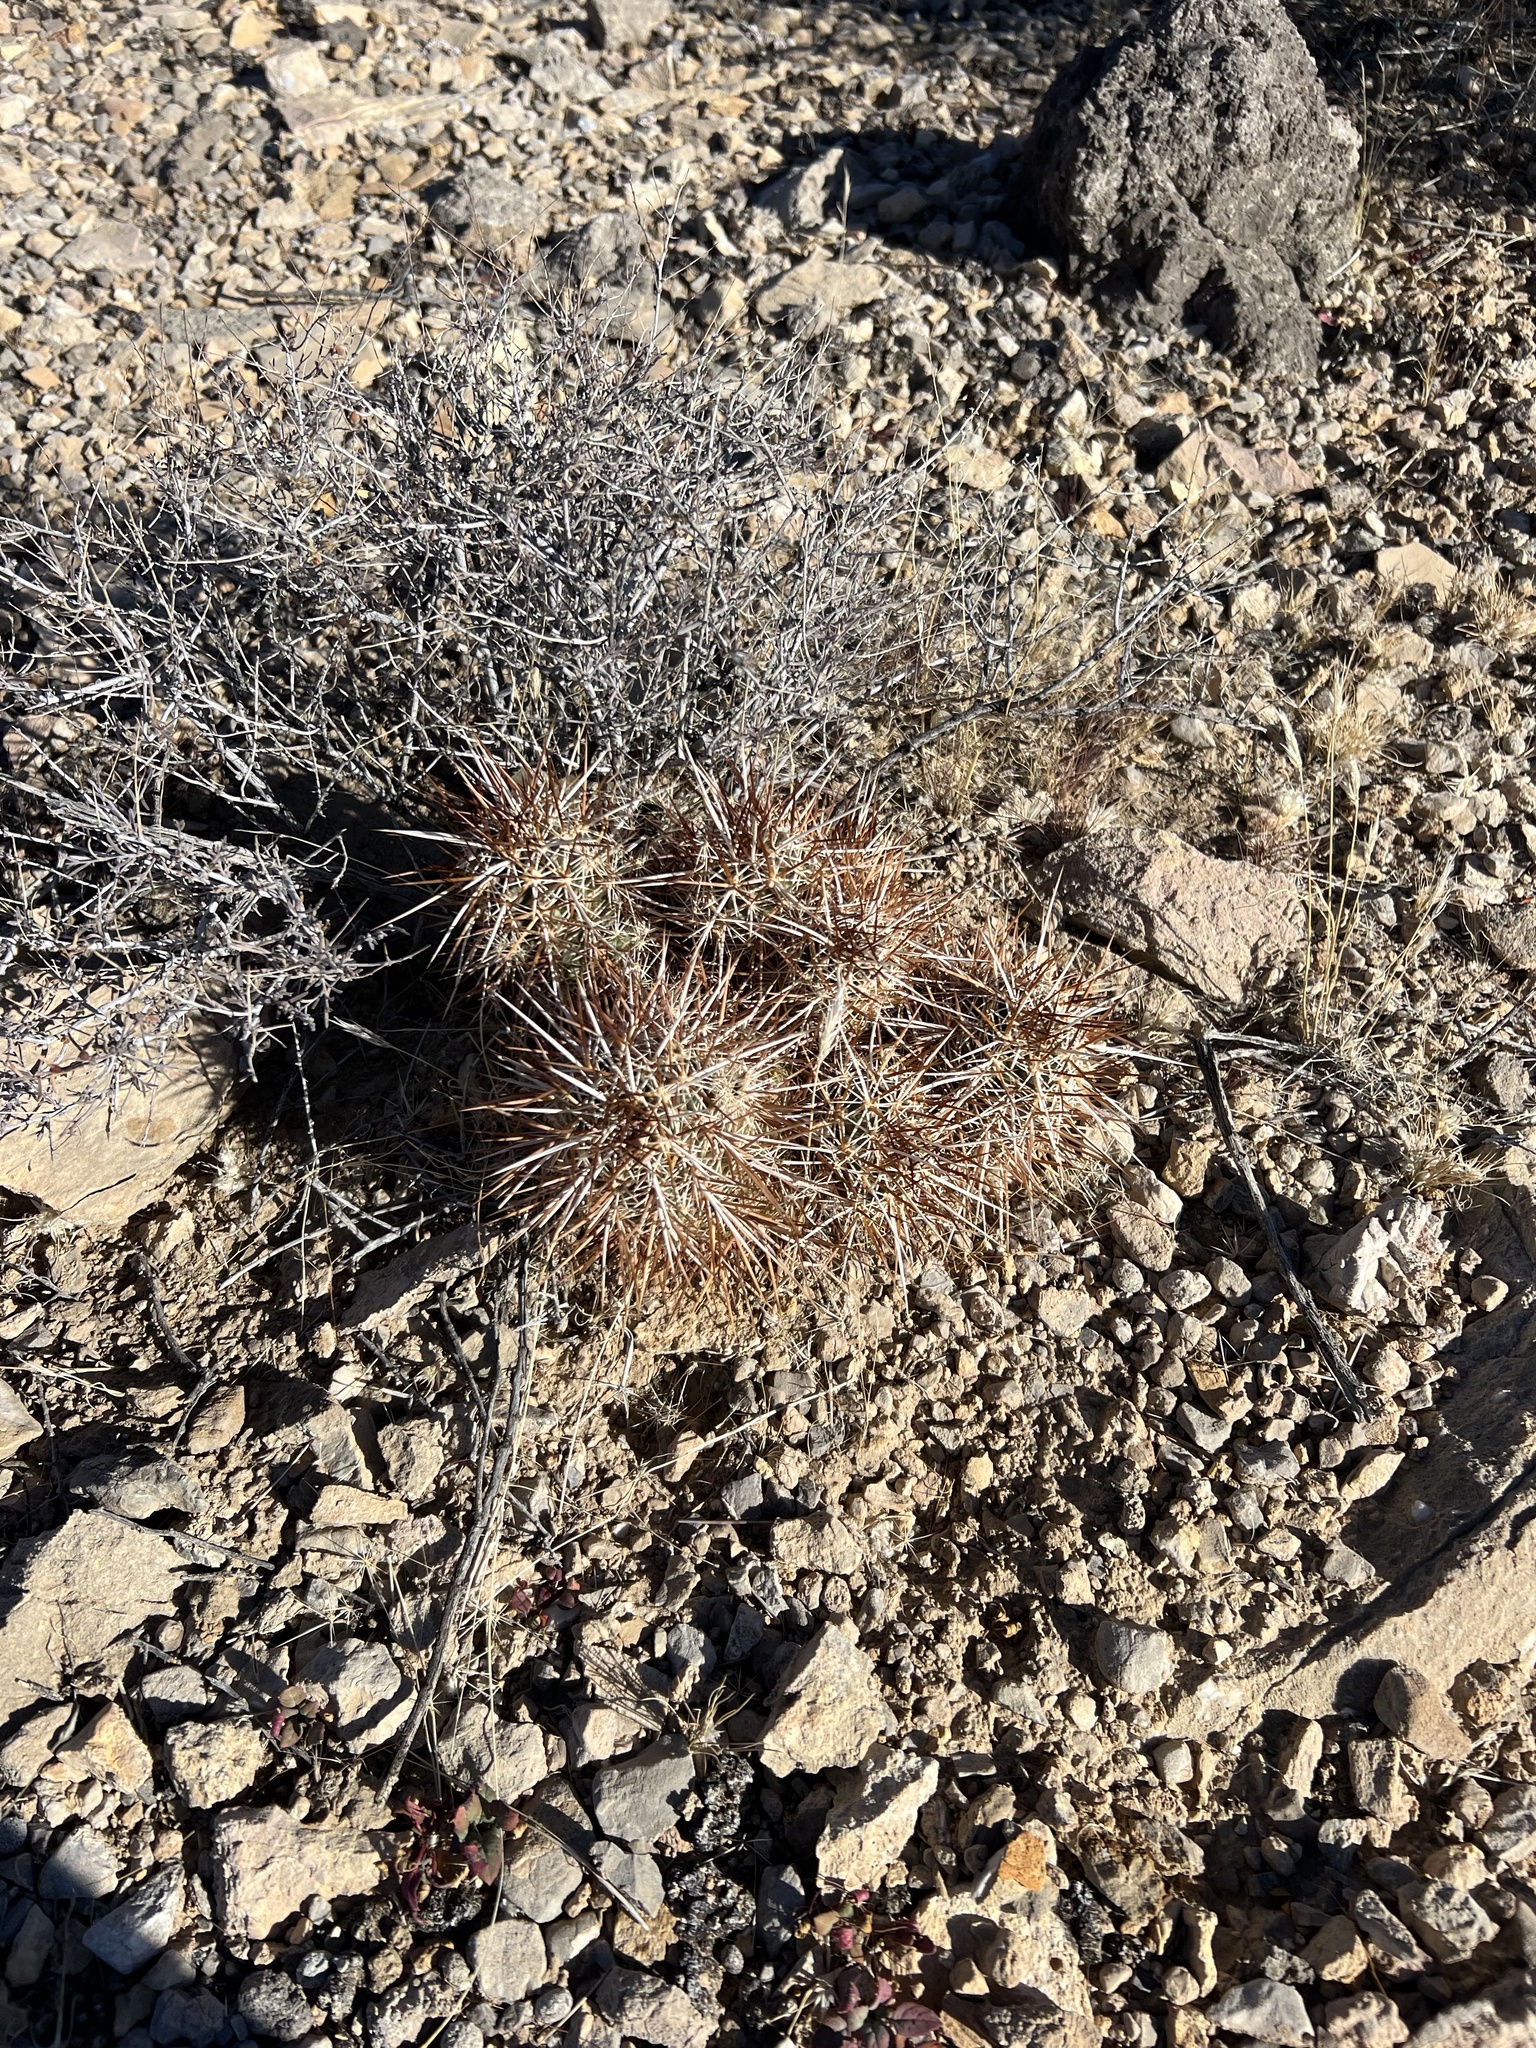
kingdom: Plantae
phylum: Tracheophyta
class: Magnoliopsida
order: Caryophyllales
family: Cactaceae
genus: Echinocereus
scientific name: Echinocereus engelmannii
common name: Engelmann's hedgehog cactus
